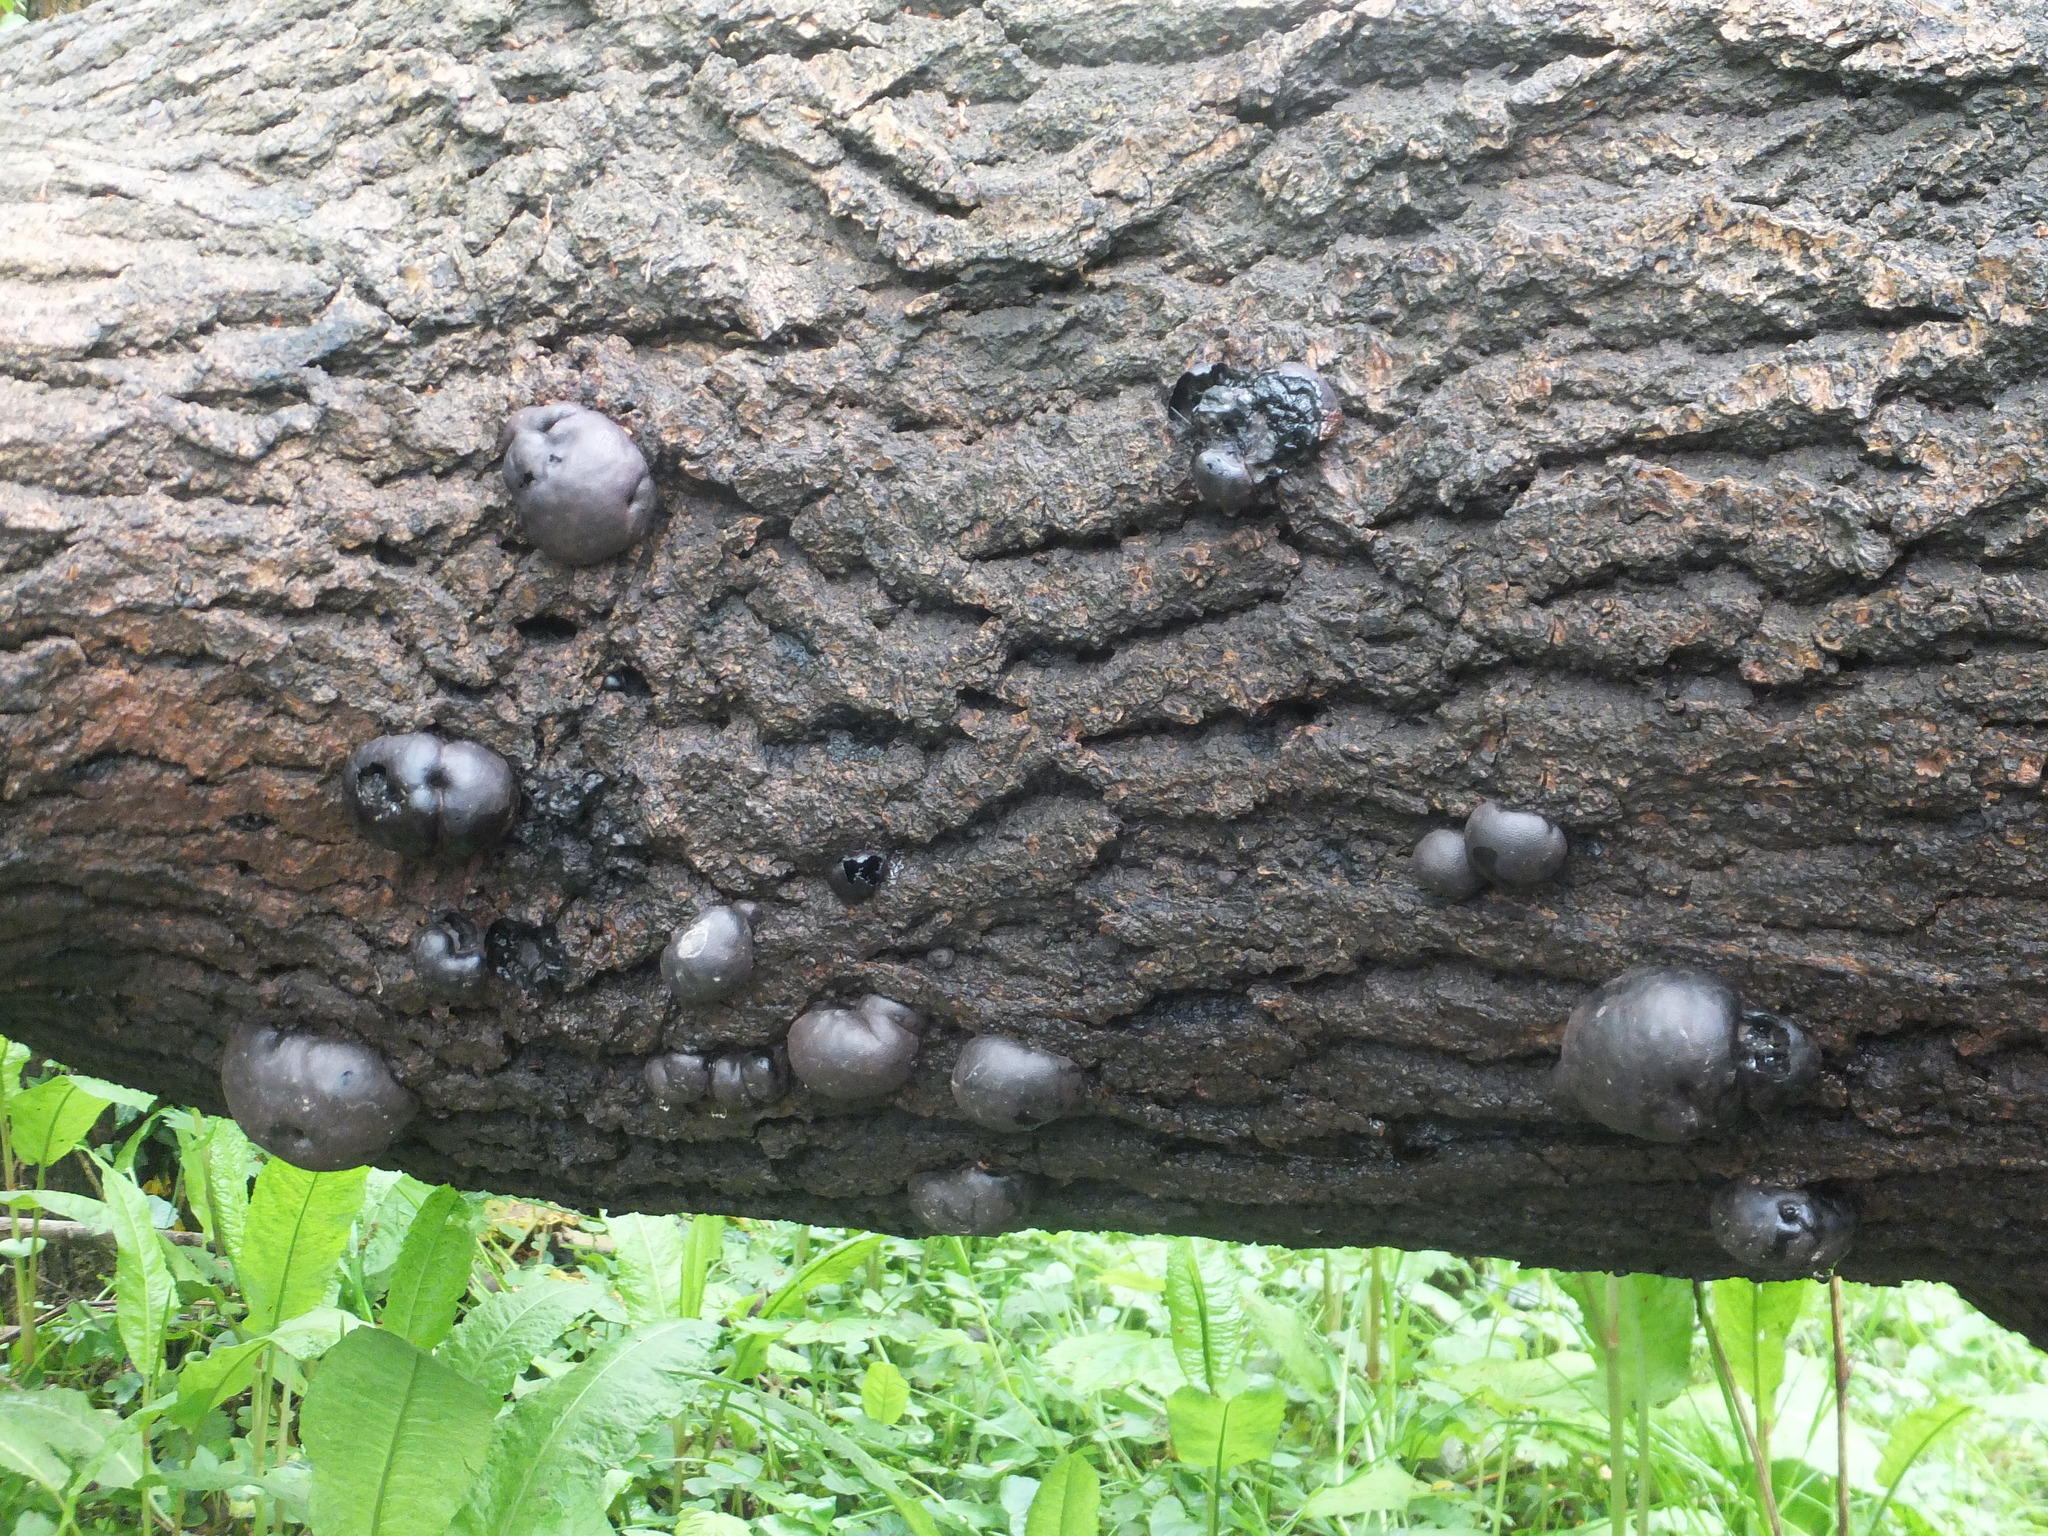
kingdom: Fungi
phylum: Ascomycota
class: Sordariomycetes
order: Xylariales
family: Hypoxylaceae
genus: Daldinia
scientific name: Daldinia concentrica
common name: Cramp balls
